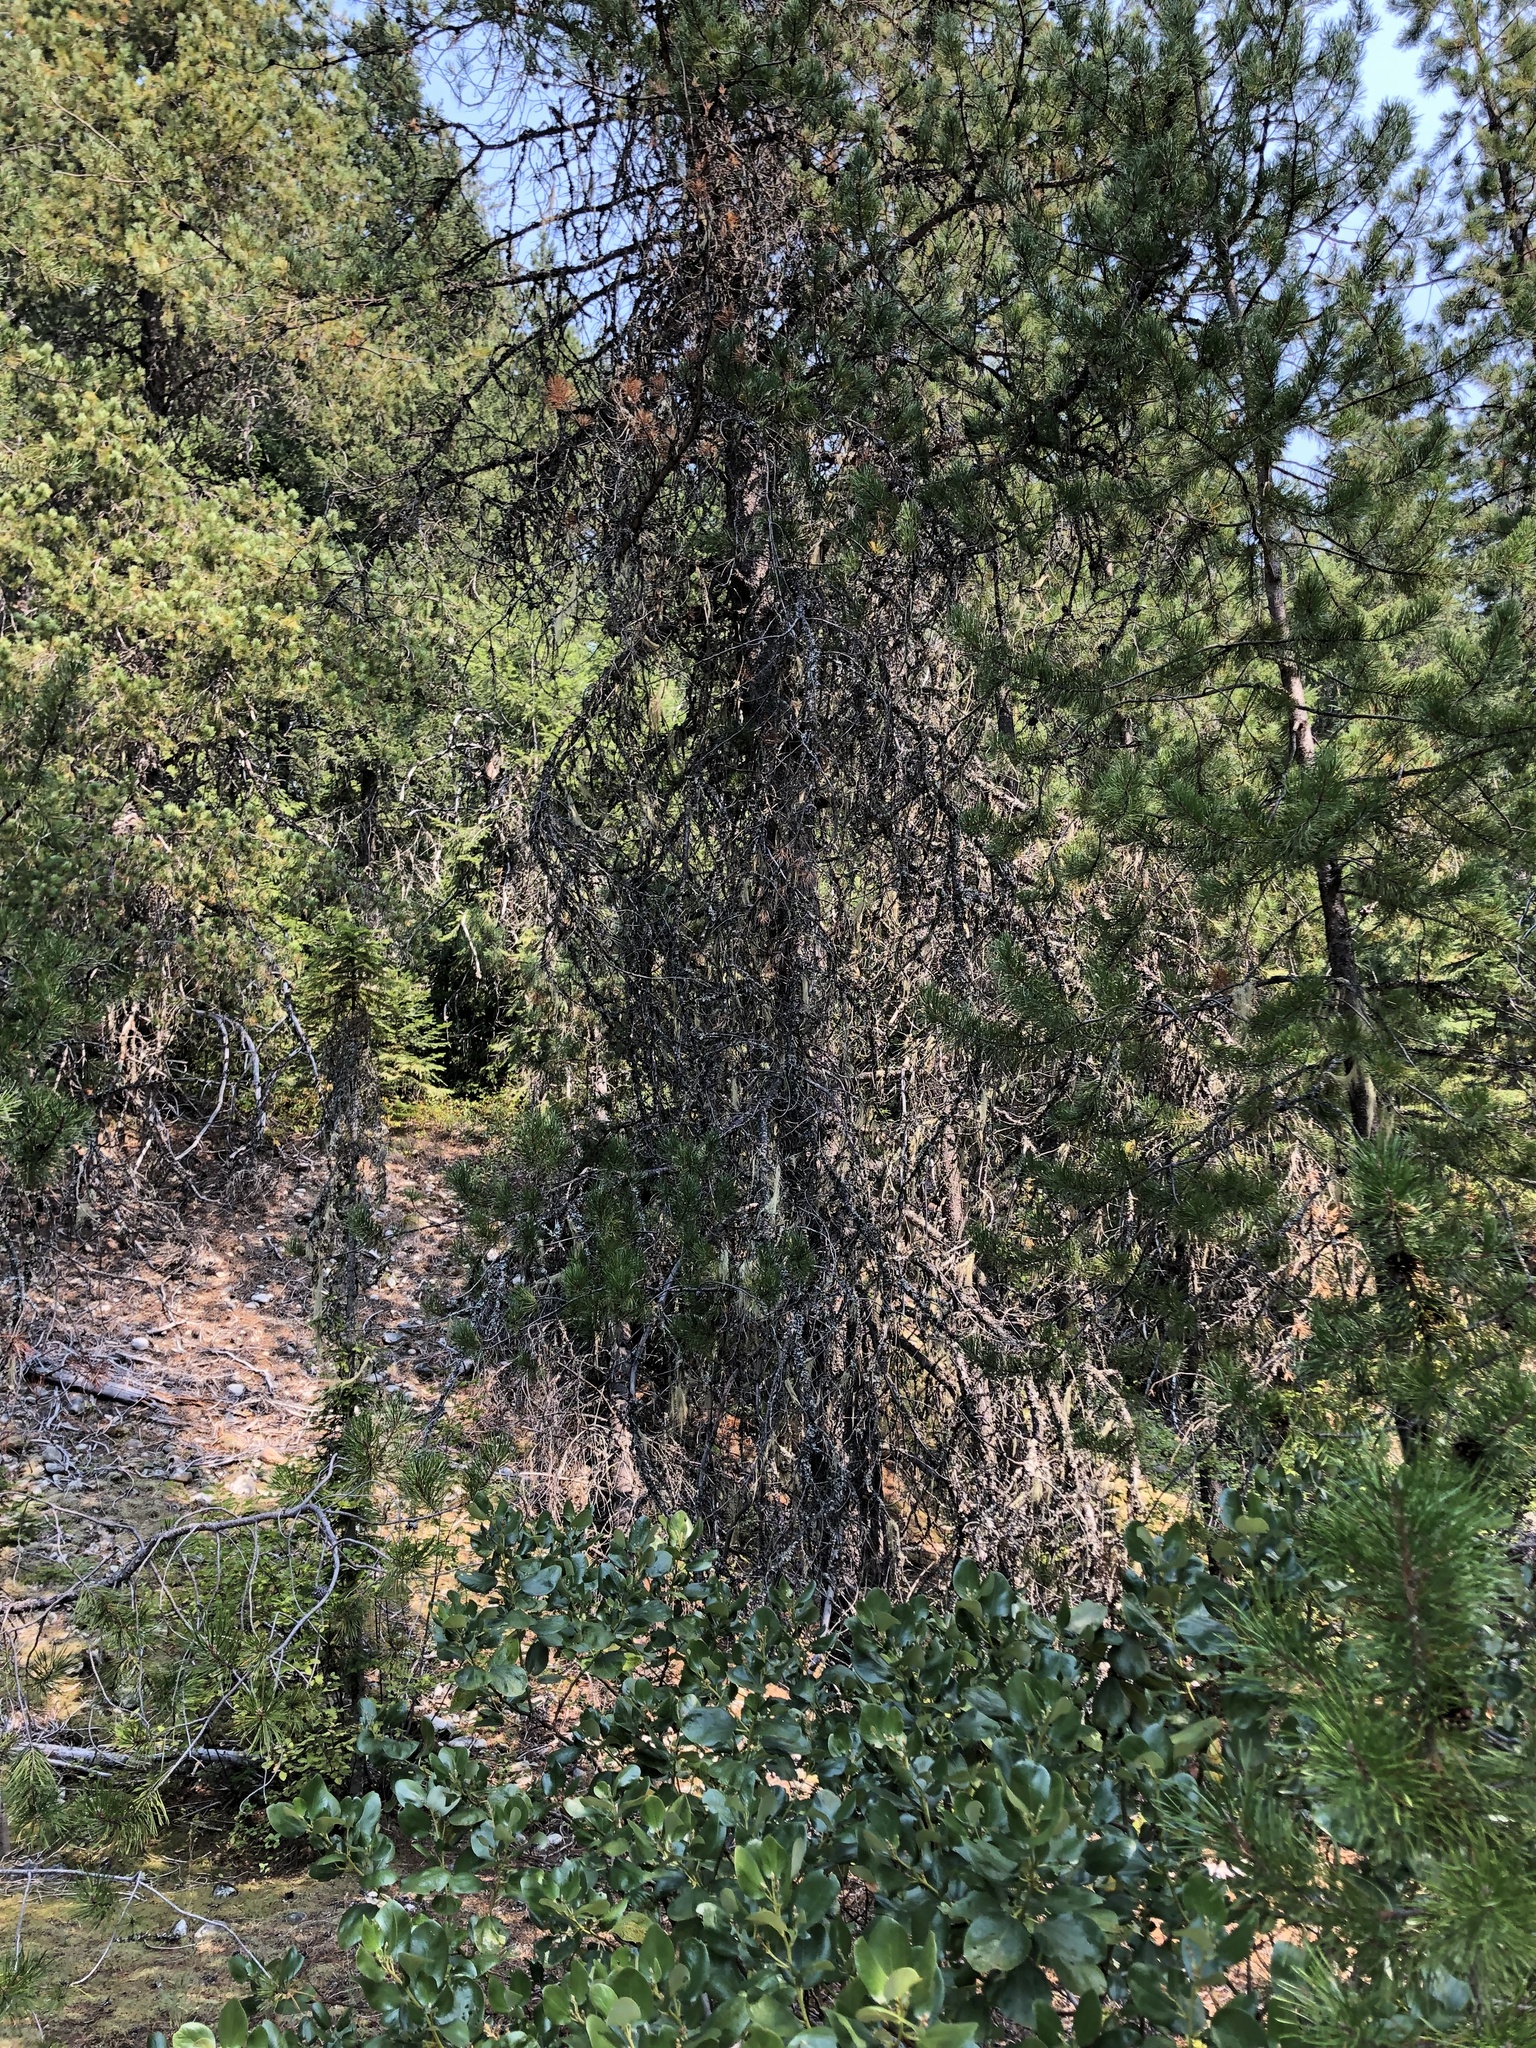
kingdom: Plantae
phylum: Tracheophyta
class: Magnoliopsida
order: Rosales
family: Rhamnaceae
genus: Ceanothus
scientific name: Ceanothus velutinus
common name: Snowbrush
